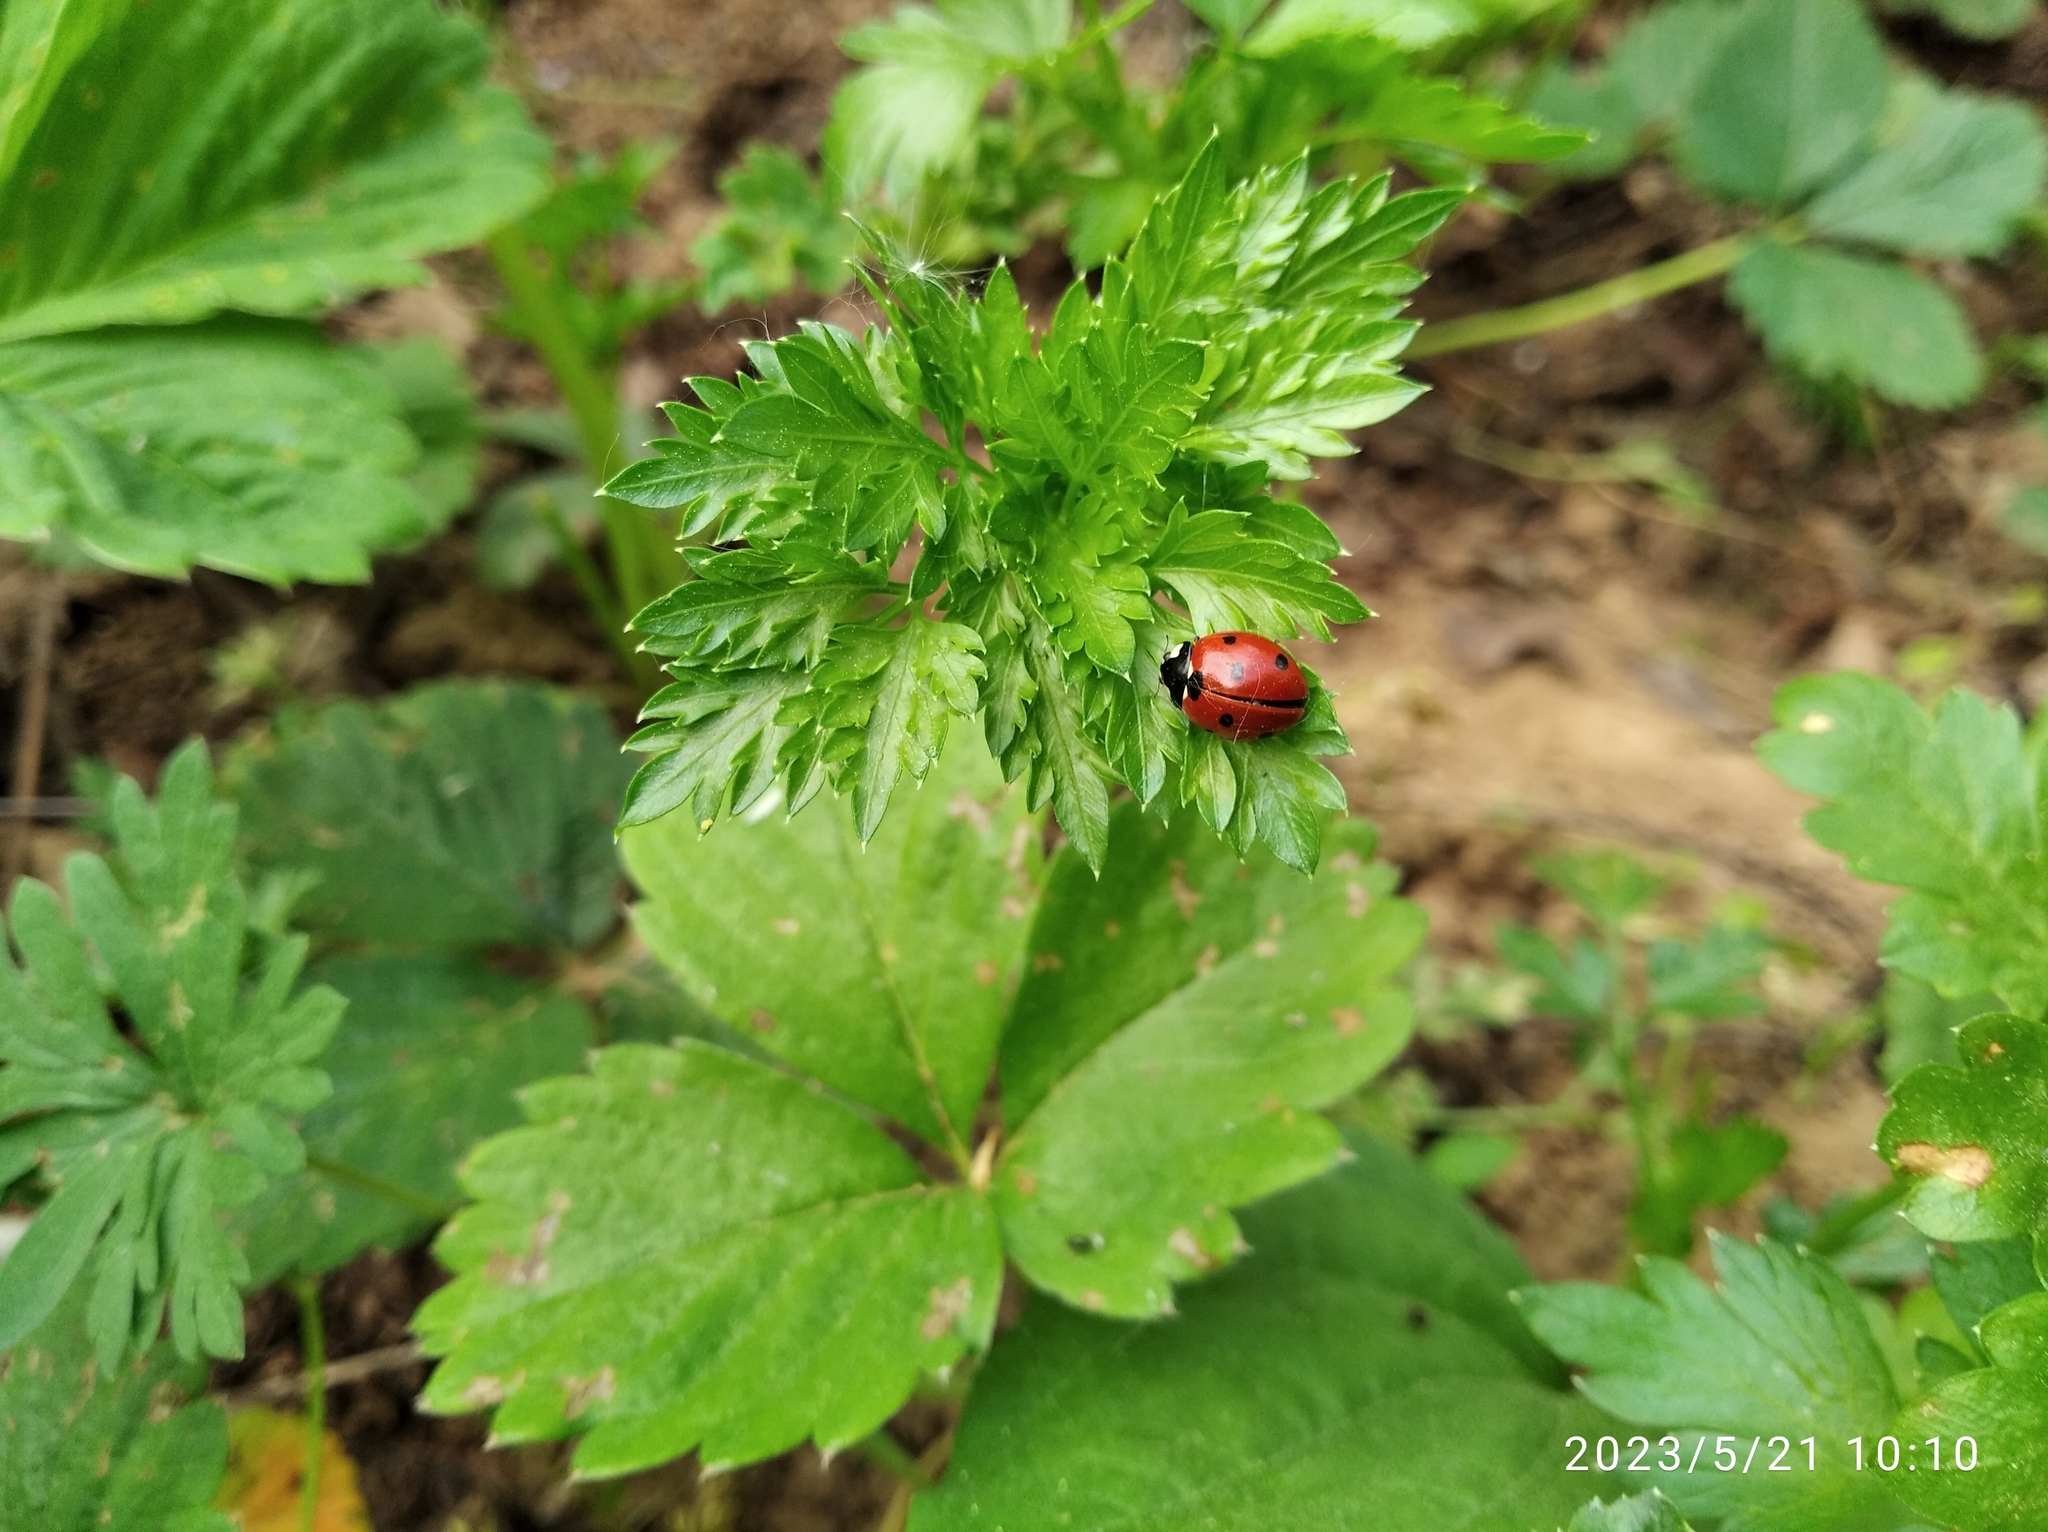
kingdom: Animalia
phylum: Arthropoda
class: Insecta
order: Coleoptera
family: Coccinellidae
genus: Coccinella
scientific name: Coccinella septempunctata
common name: Sevenspotted lady beetle
